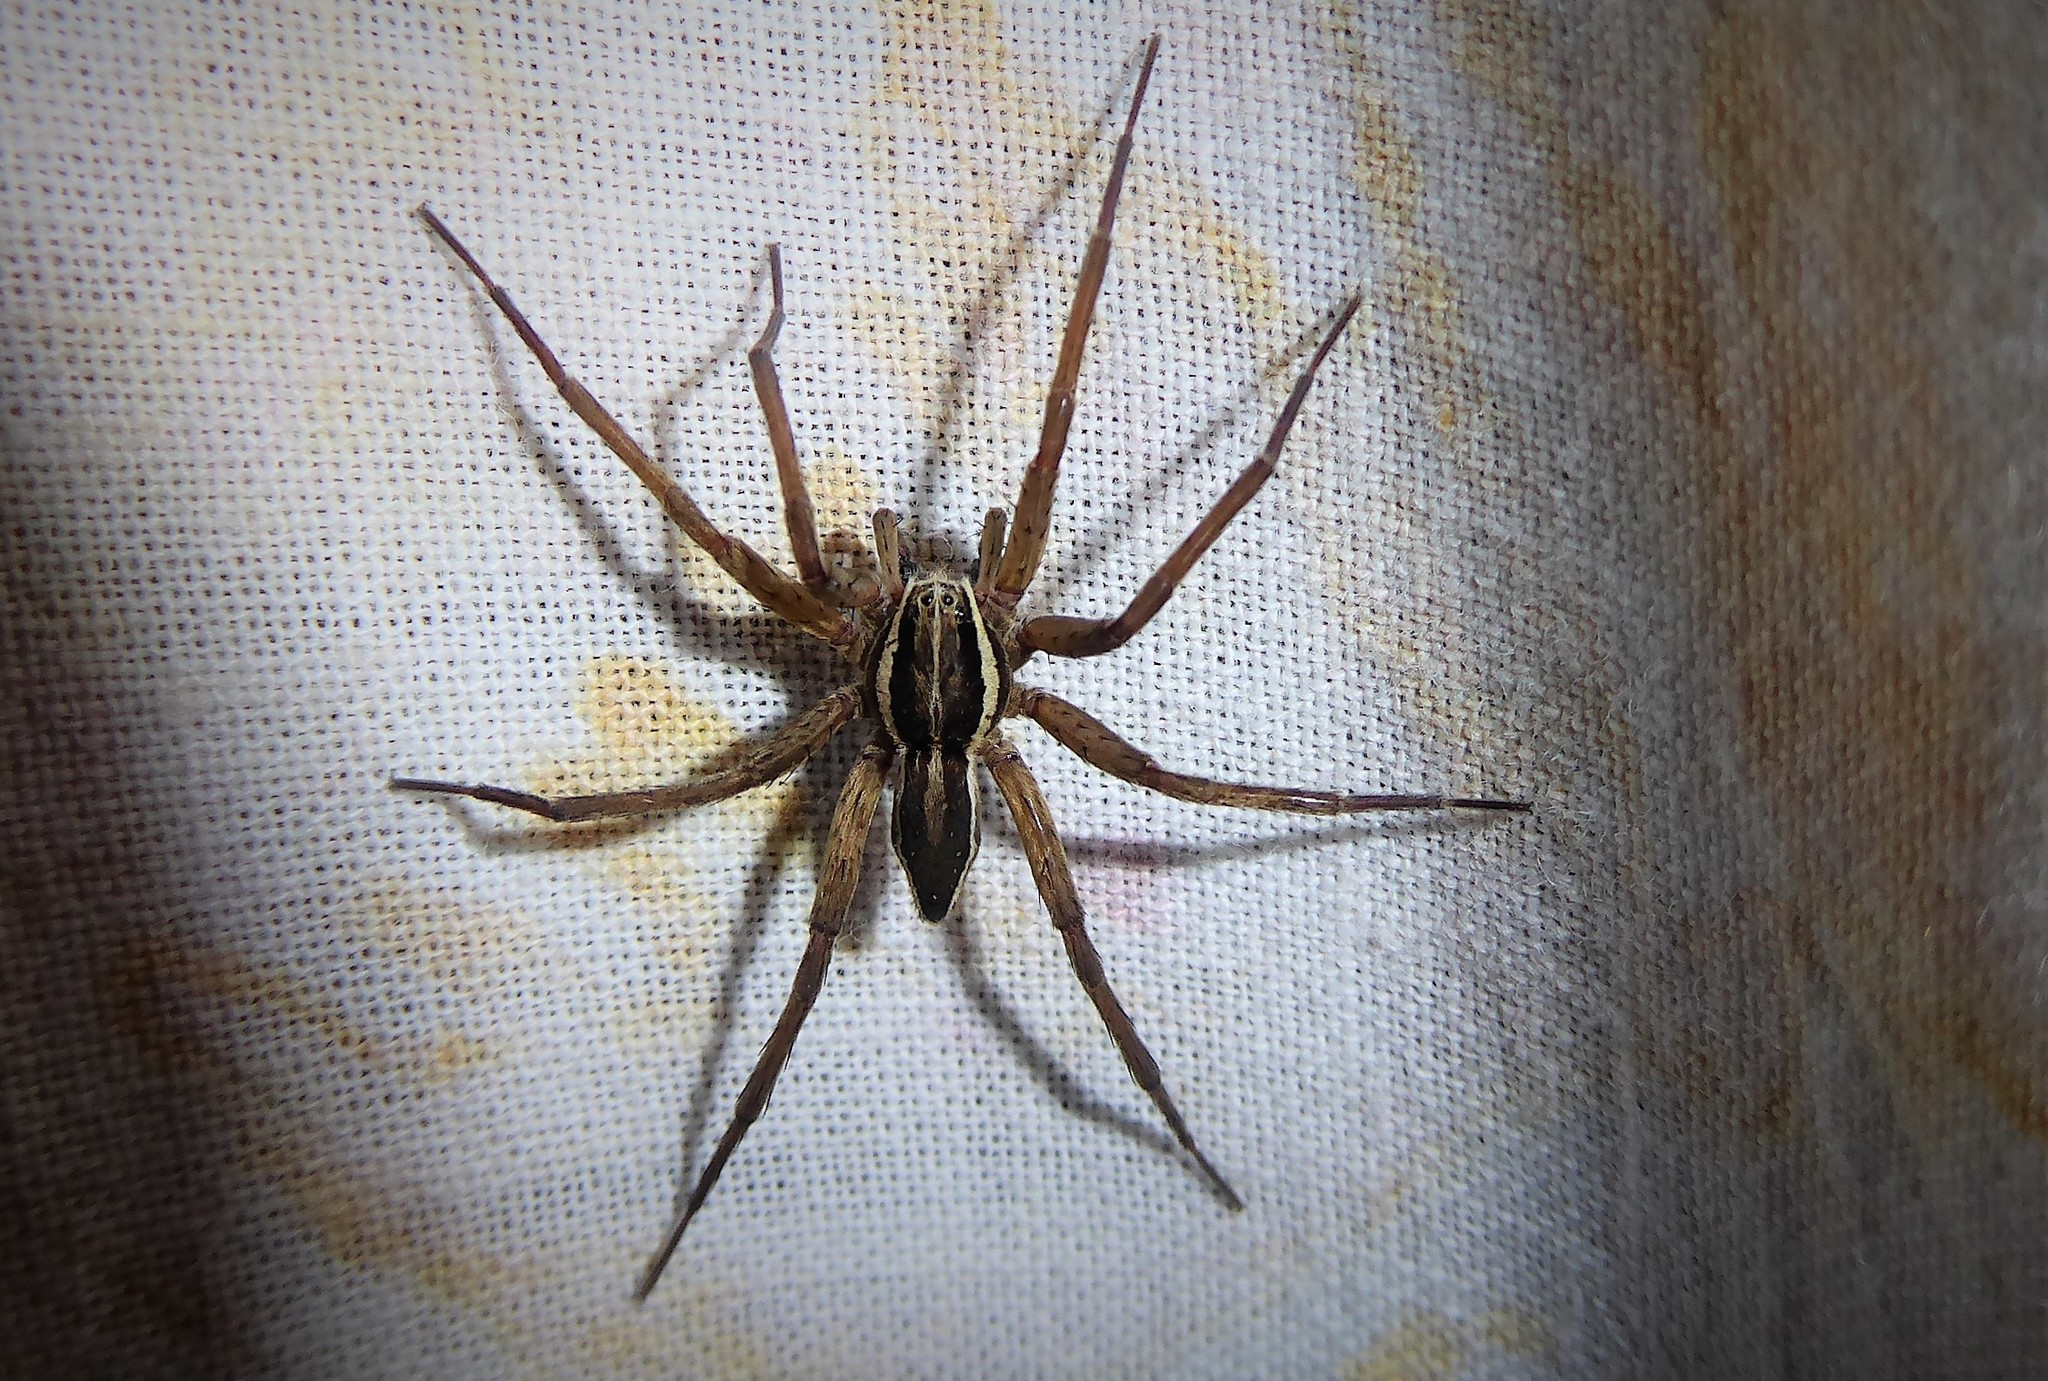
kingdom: Animalia
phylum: Arthropoda
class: Arachnida
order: Araneae
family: Pisauridae
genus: Dolomedes
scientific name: Dolomedes minor
